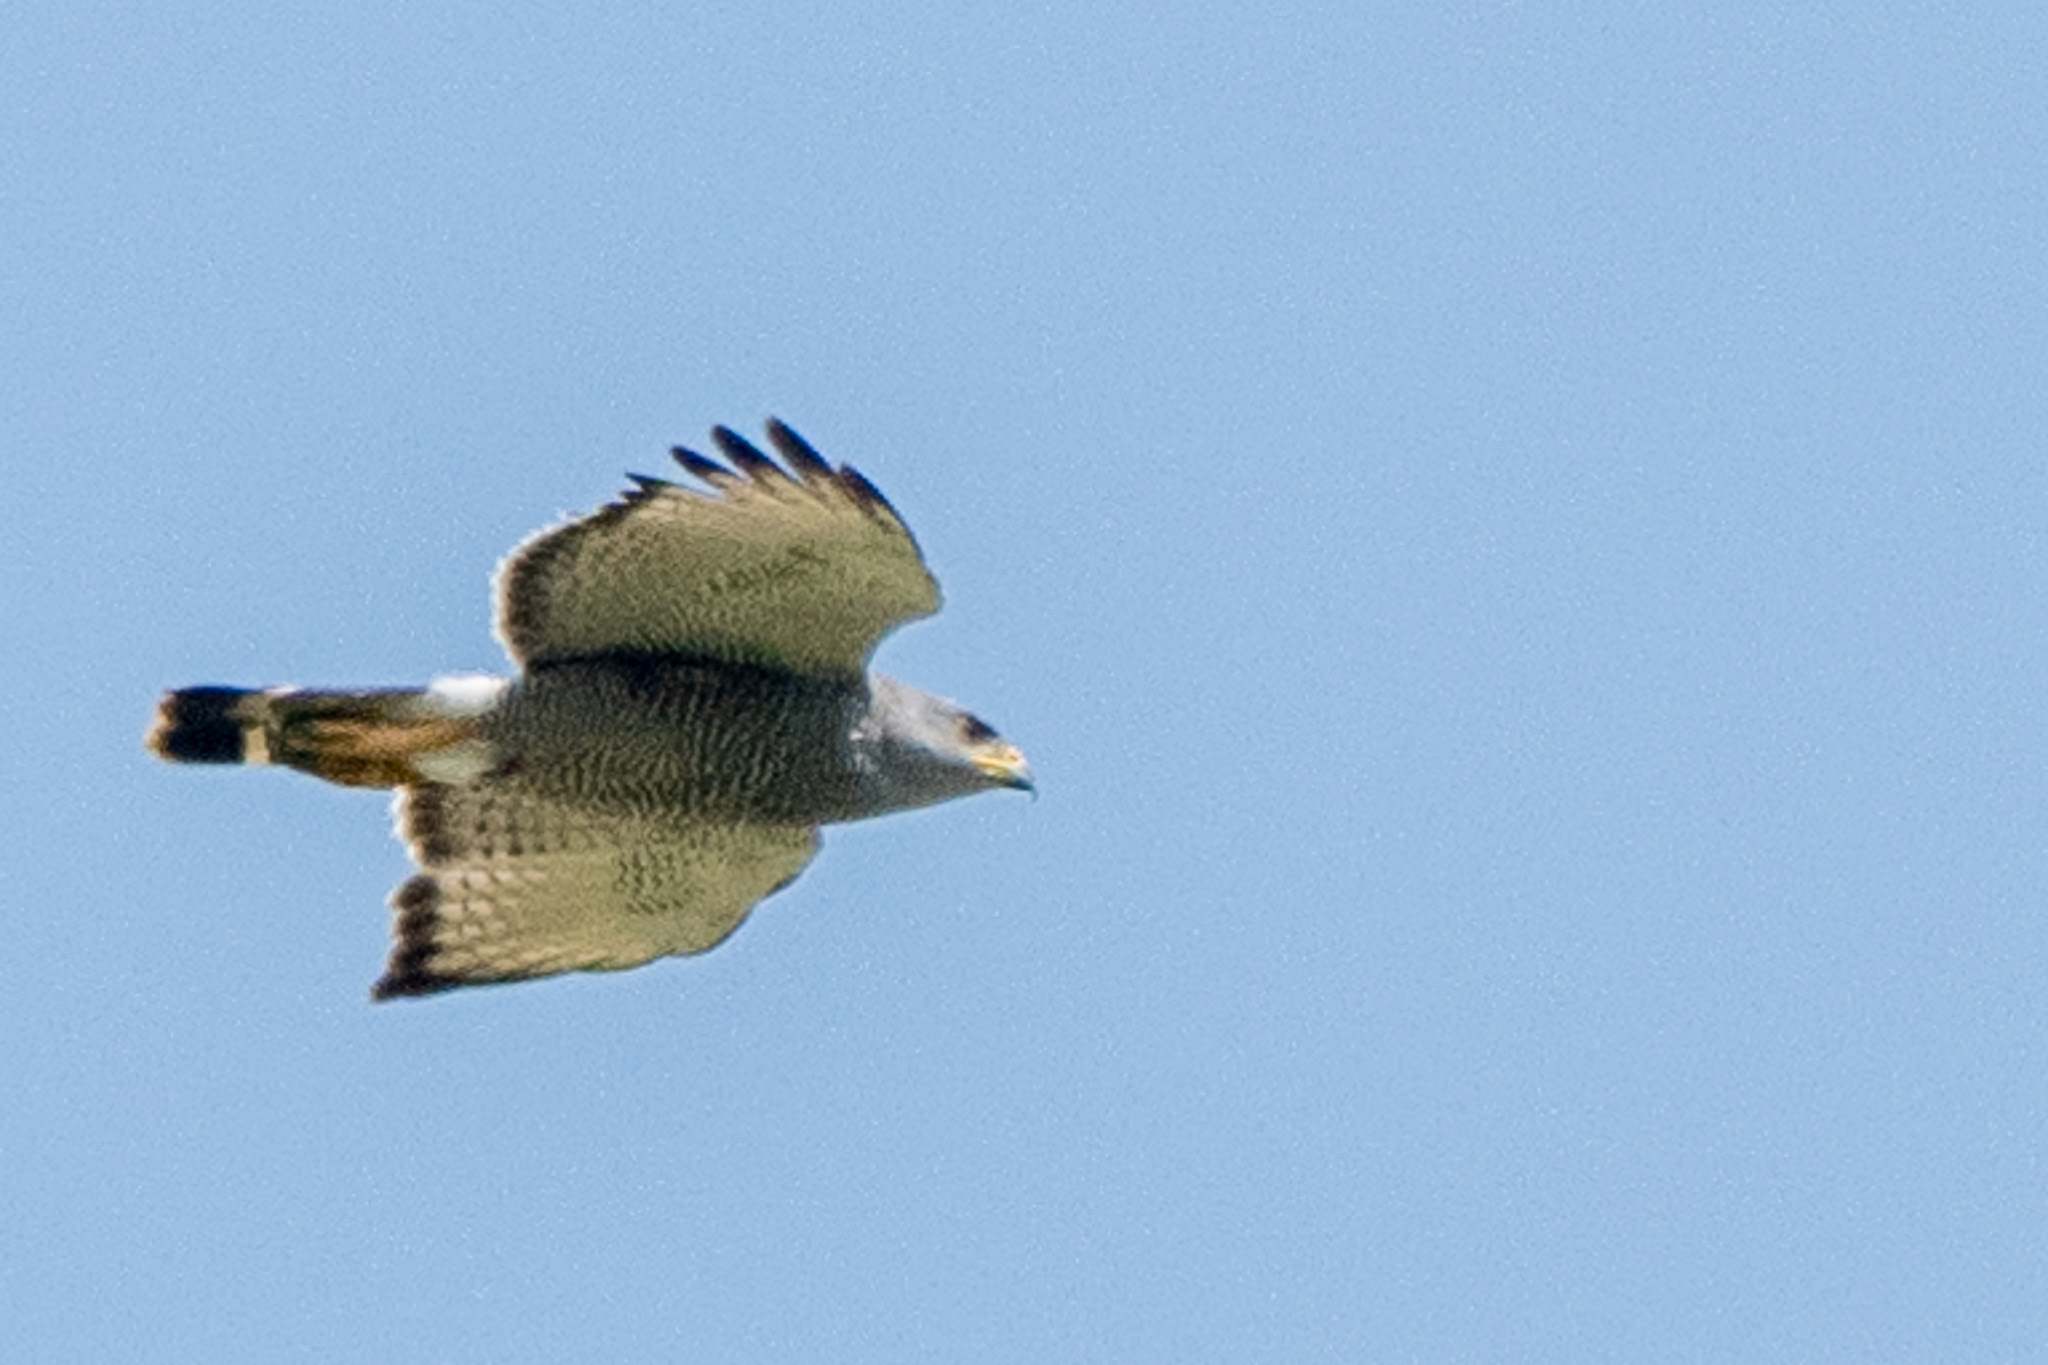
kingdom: Animalia
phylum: Chordata
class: Aves
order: Accipitriformes
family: Accipitridae
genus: Buteo
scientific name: Buteo nitidus
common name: Grey-lined hawk
